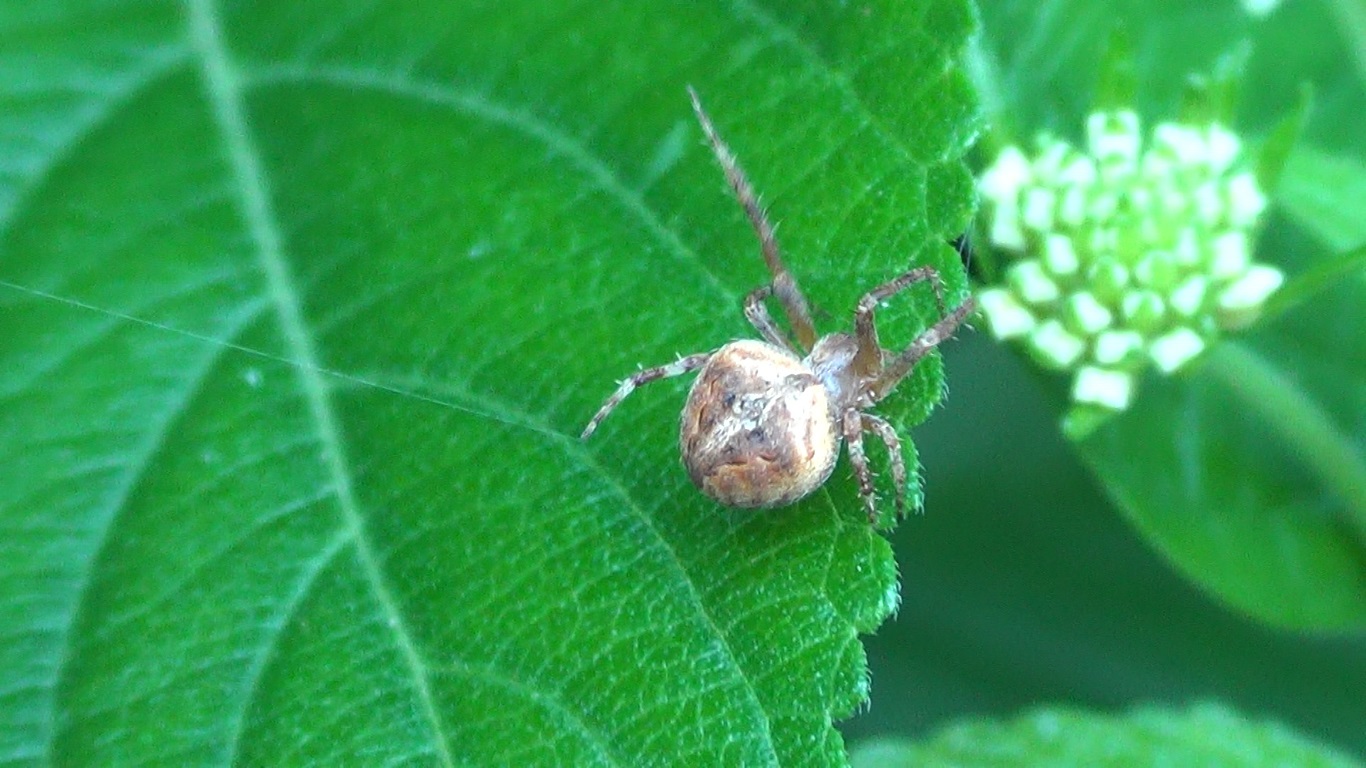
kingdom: Animalia
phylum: Arthropoda
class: Arachnida
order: Araneae
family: Araneidae
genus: Neoscona
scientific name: Neoscona subfusca
